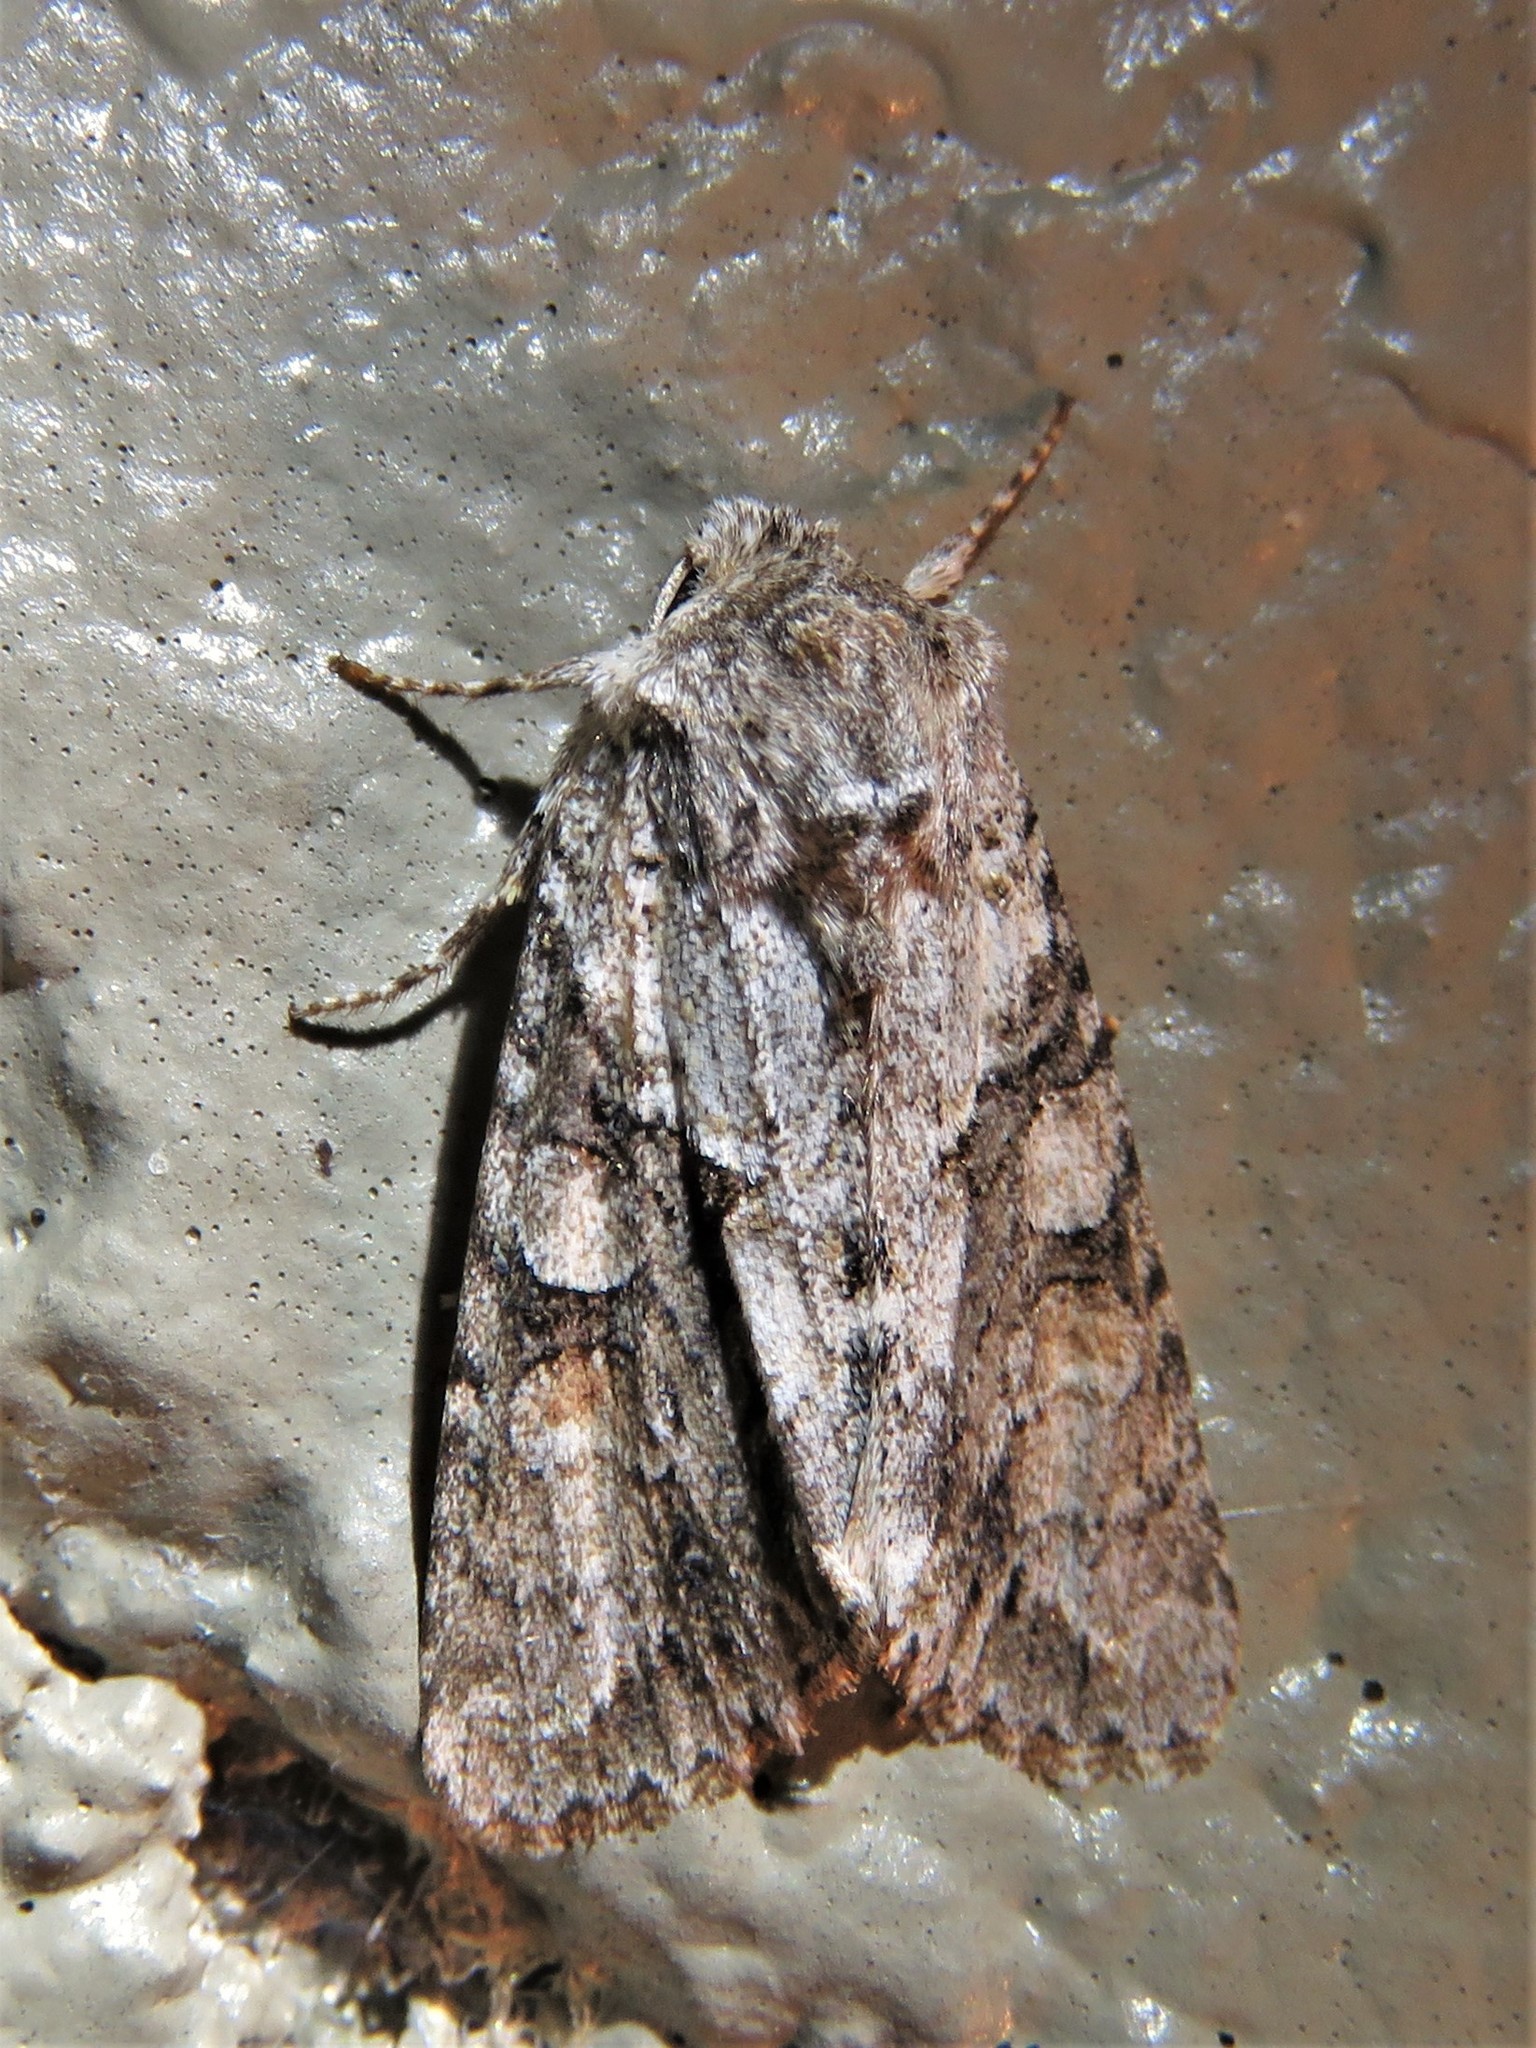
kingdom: Animalia
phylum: Arthropoda
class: Insecta
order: Lepidoptera
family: Noctuidae
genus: Achatia
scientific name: Achatia distincta
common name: Distinct quaker
